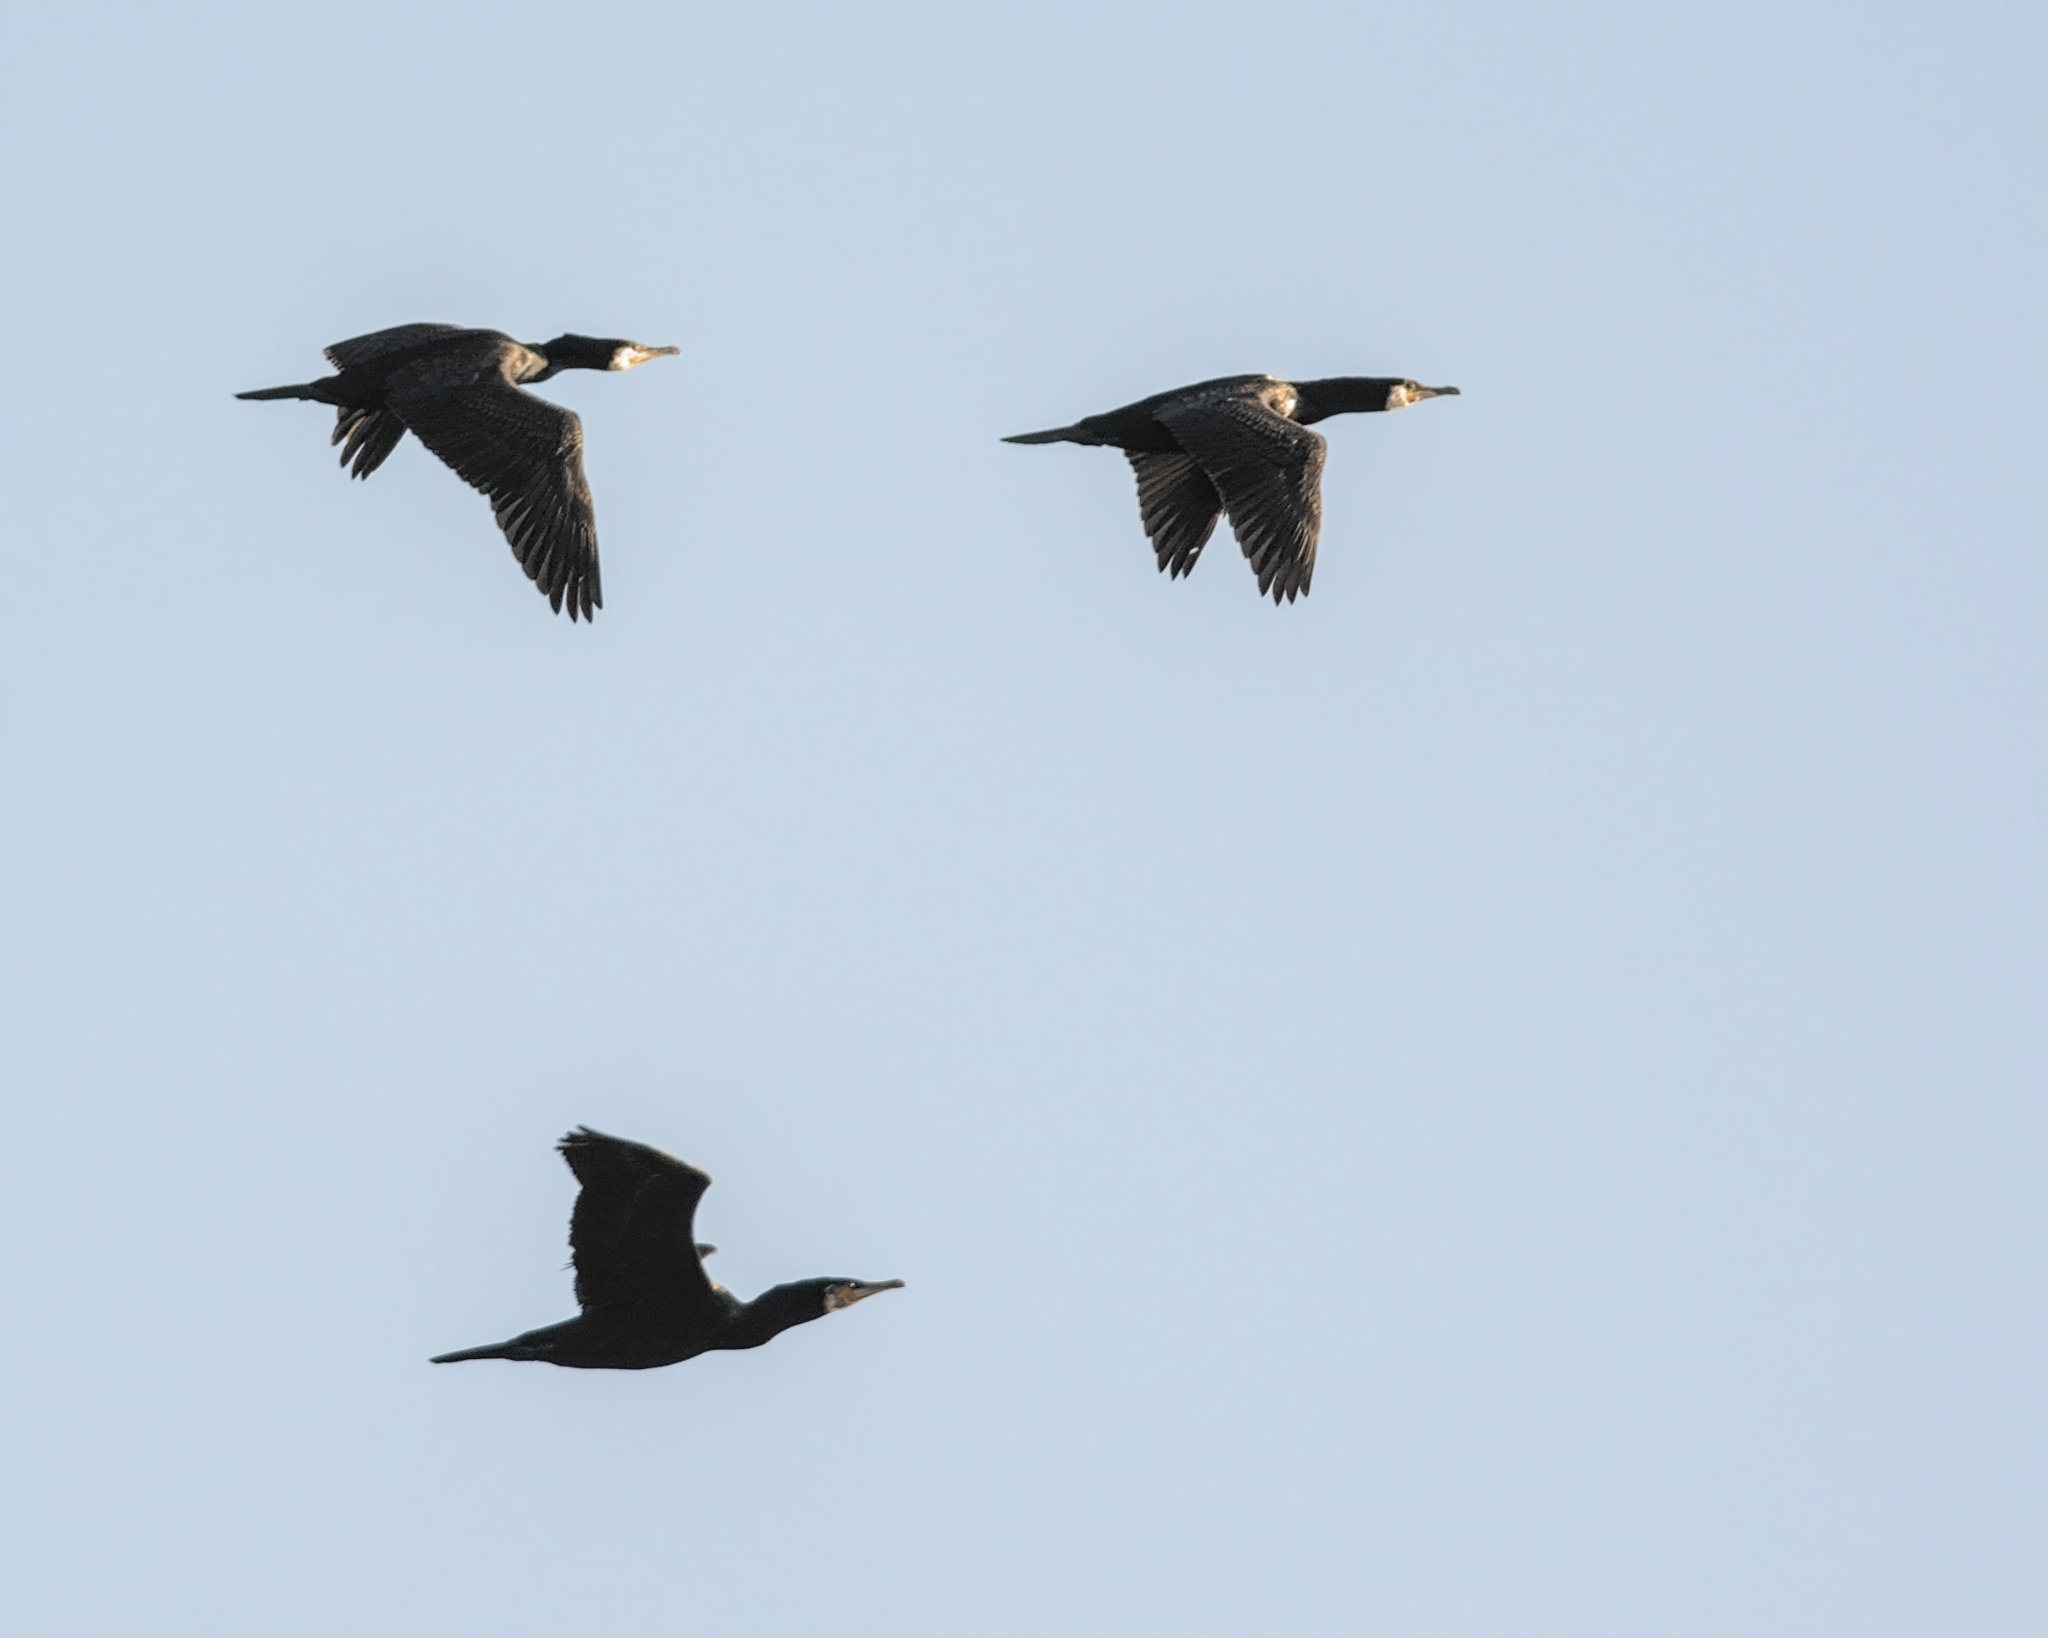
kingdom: Animalia
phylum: Chordata
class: Aves
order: Suliformes
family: Phalacrocoracidae
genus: Phalacrocorax
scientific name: Phalacrocorax carbo
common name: Great cormorant
